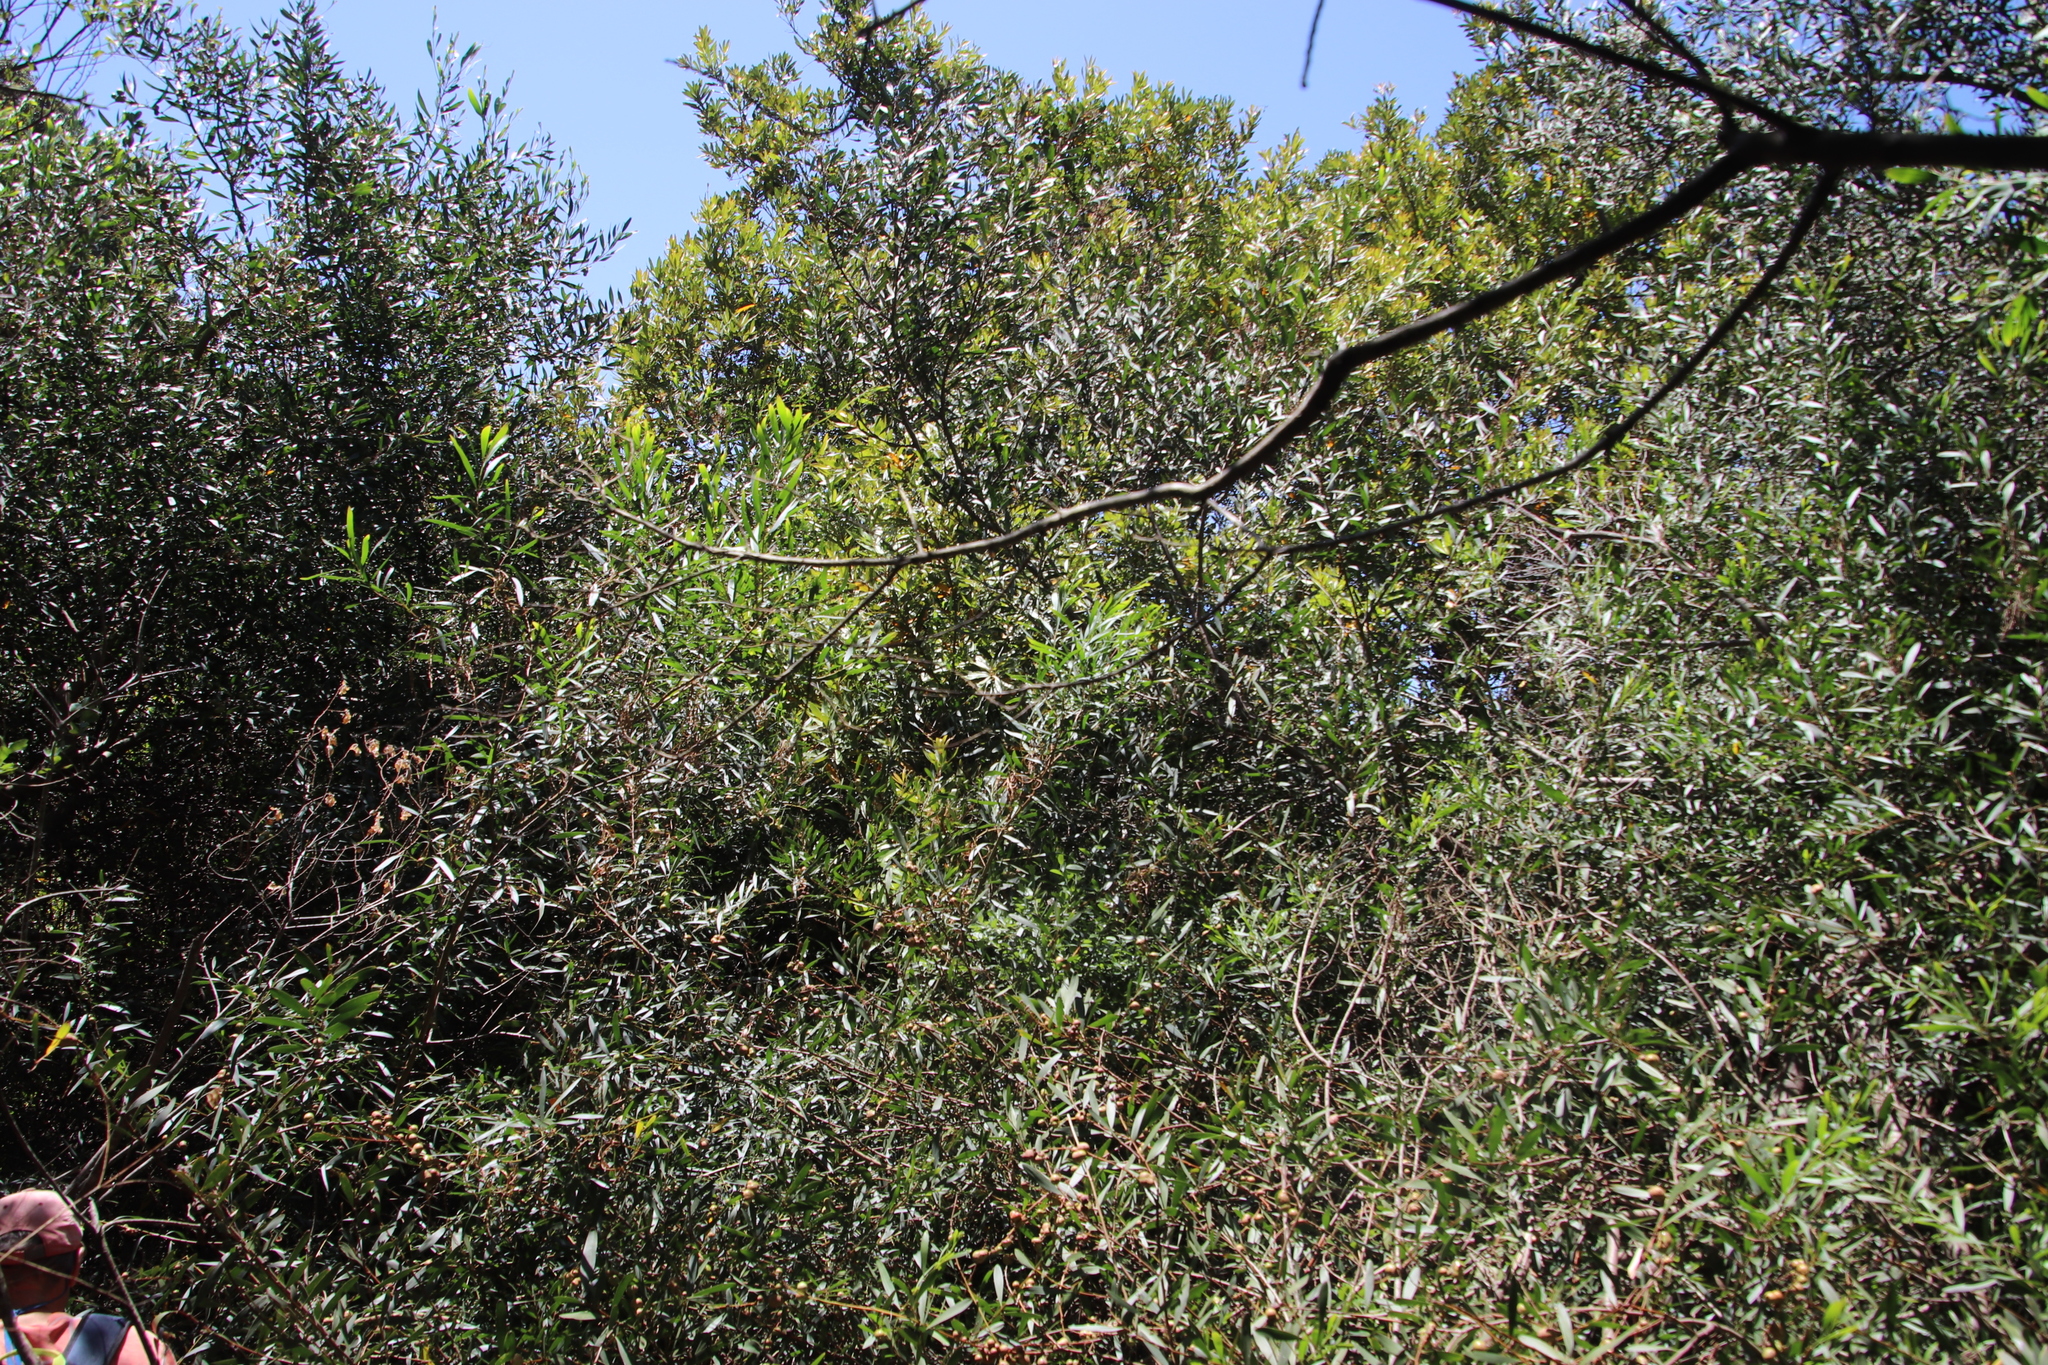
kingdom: Plantae
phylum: Tracheophyta
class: Magnoliopsida
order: Fabales
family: Fabaceae
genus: Acacia
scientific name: Acacia longifolia
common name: Sydney golden wattle
